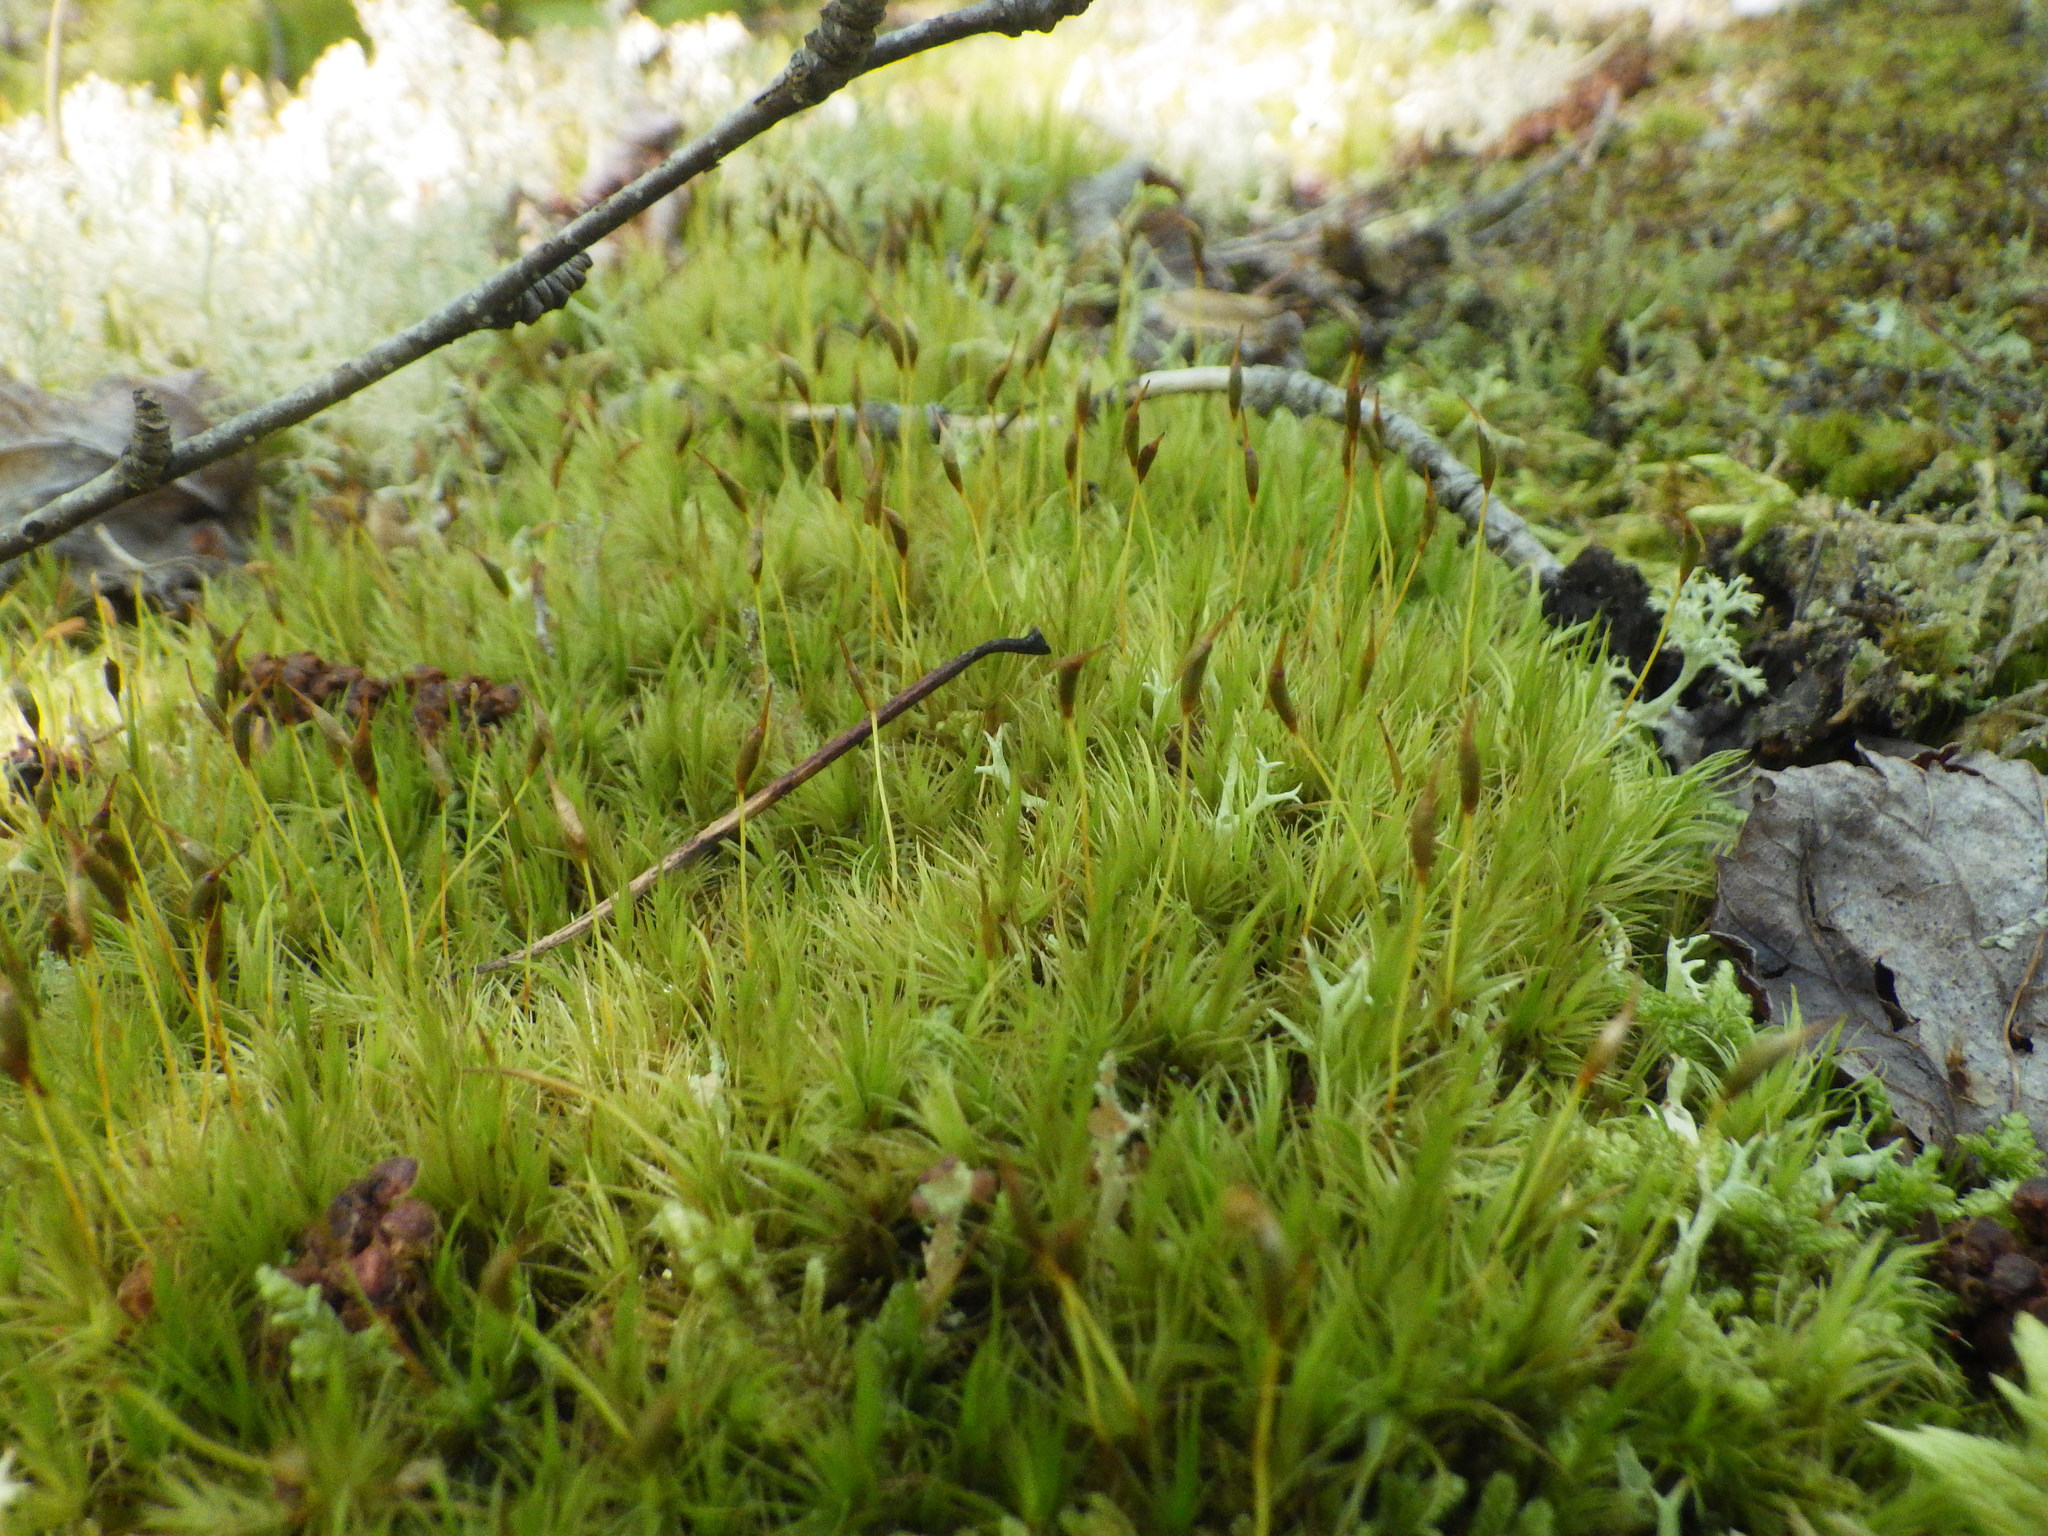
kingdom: Plantae
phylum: Bryophyta
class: Bryopsida
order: Dicranales
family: Dicranaceae
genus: Dicranum
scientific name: Dicranum scoparium
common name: Broom fork-moss
